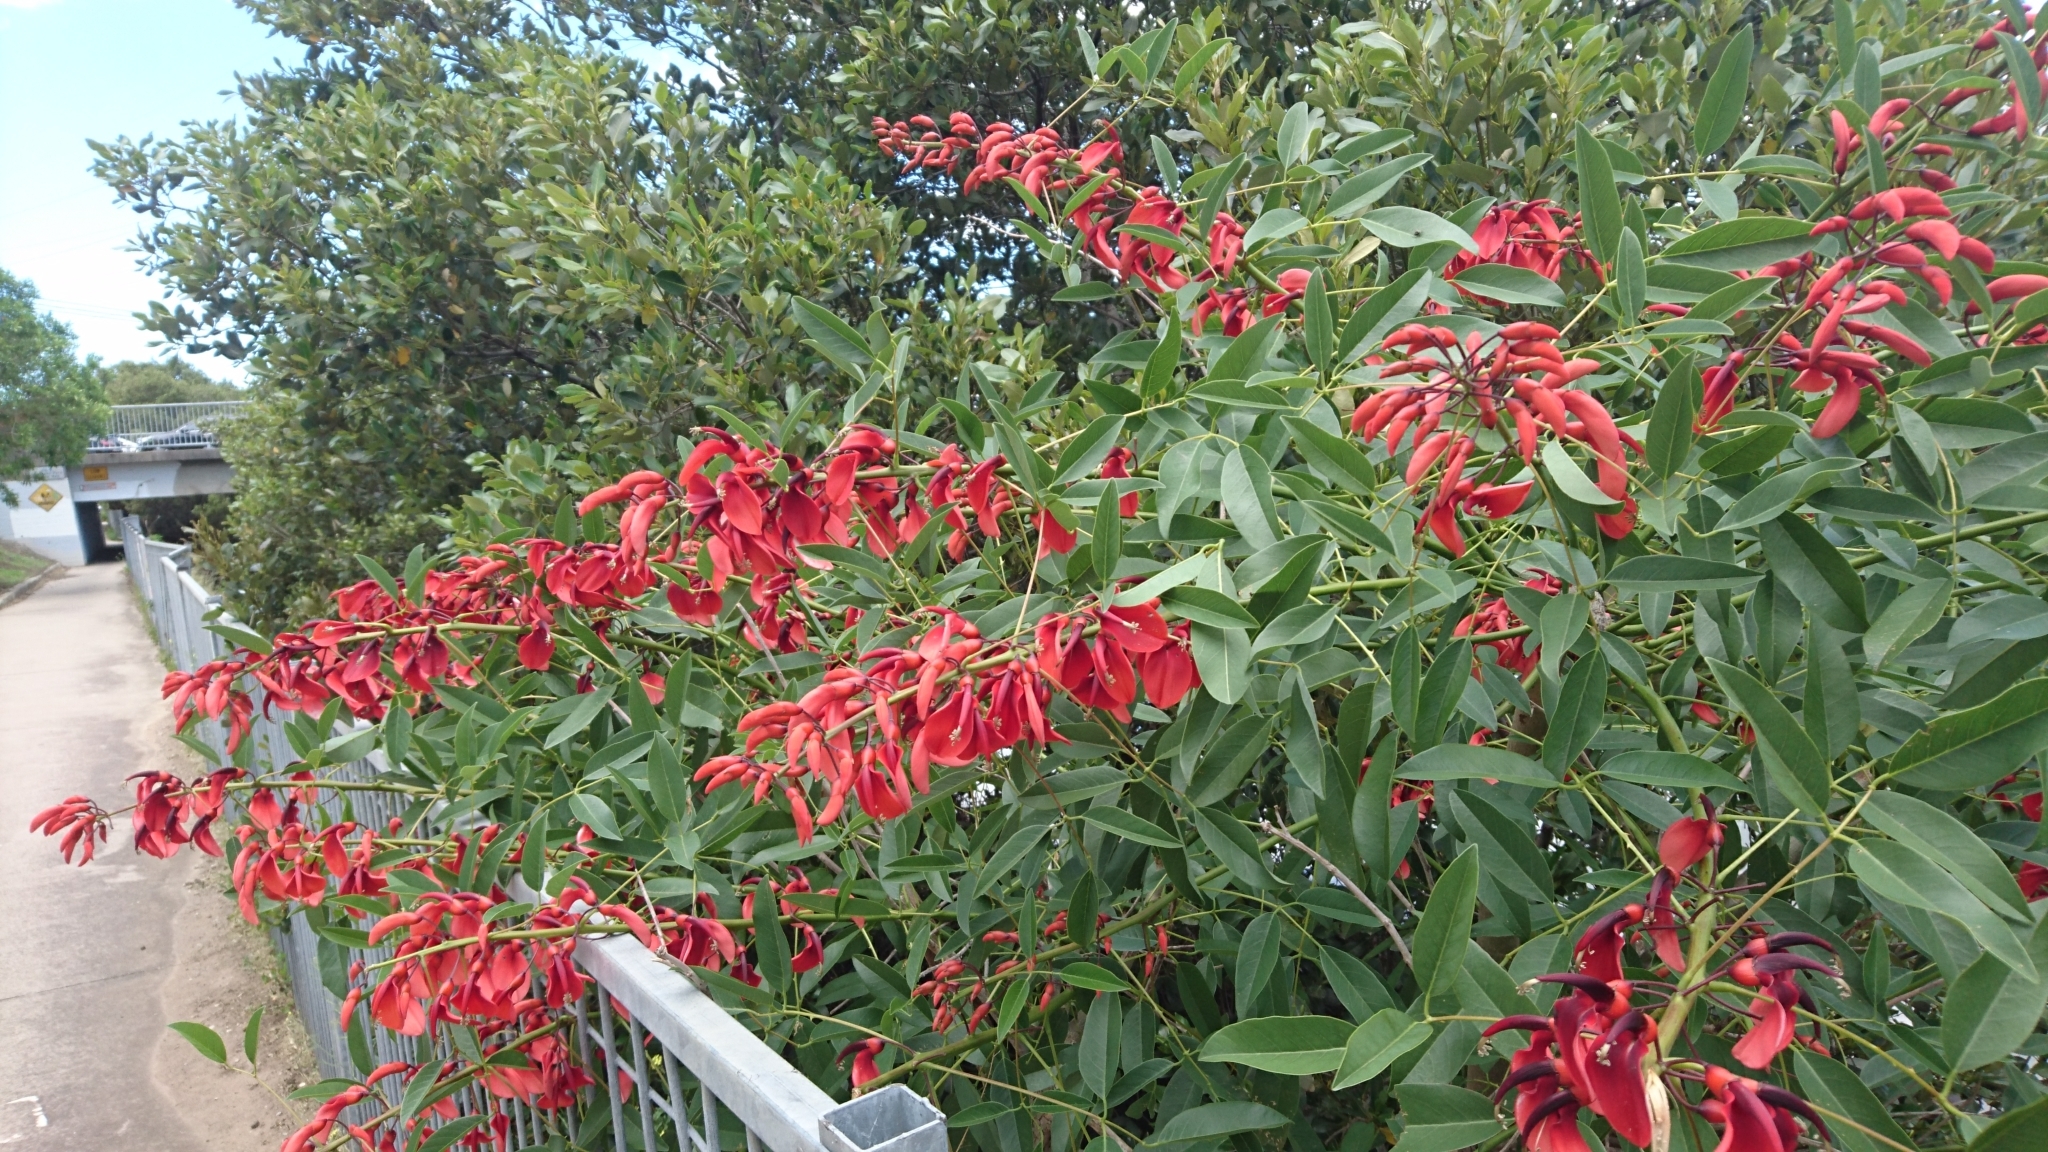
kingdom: Plantae
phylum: Tracheophyta
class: Magnoliopsida
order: Fabales
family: Fabaceae
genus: Erythrina
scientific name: Erythrina crista-galli
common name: Cockspur coral tree
